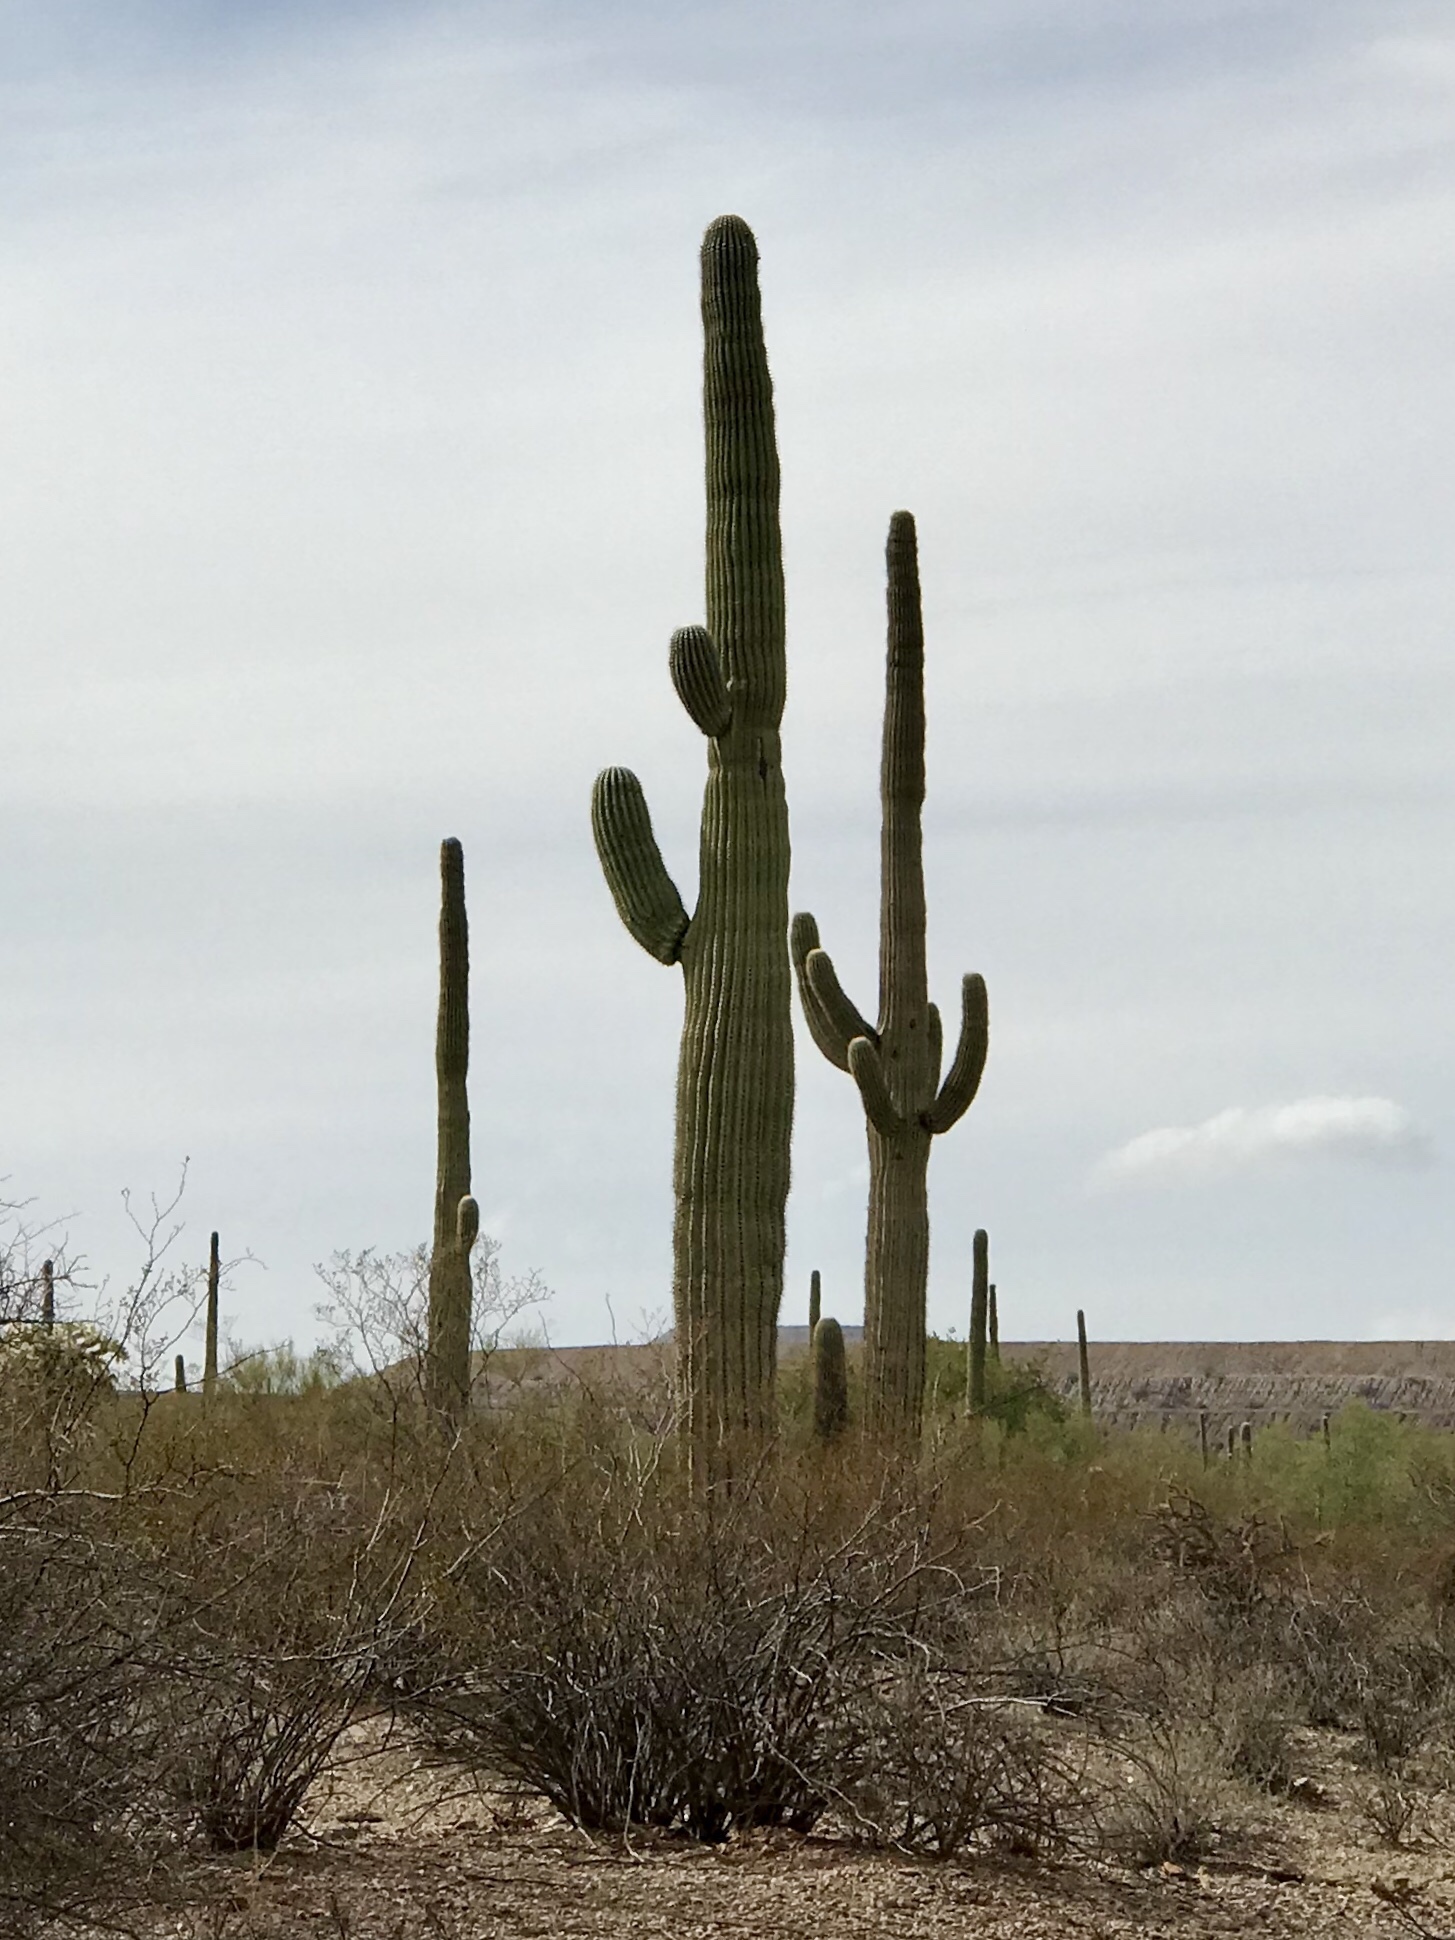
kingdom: Plantae
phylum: Tracheophyta
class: Magnoliopsida
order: Caryophyllales
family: Cactaceae
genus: Carnegiea
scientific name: Carnegiea gigantea
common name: Saguaro
